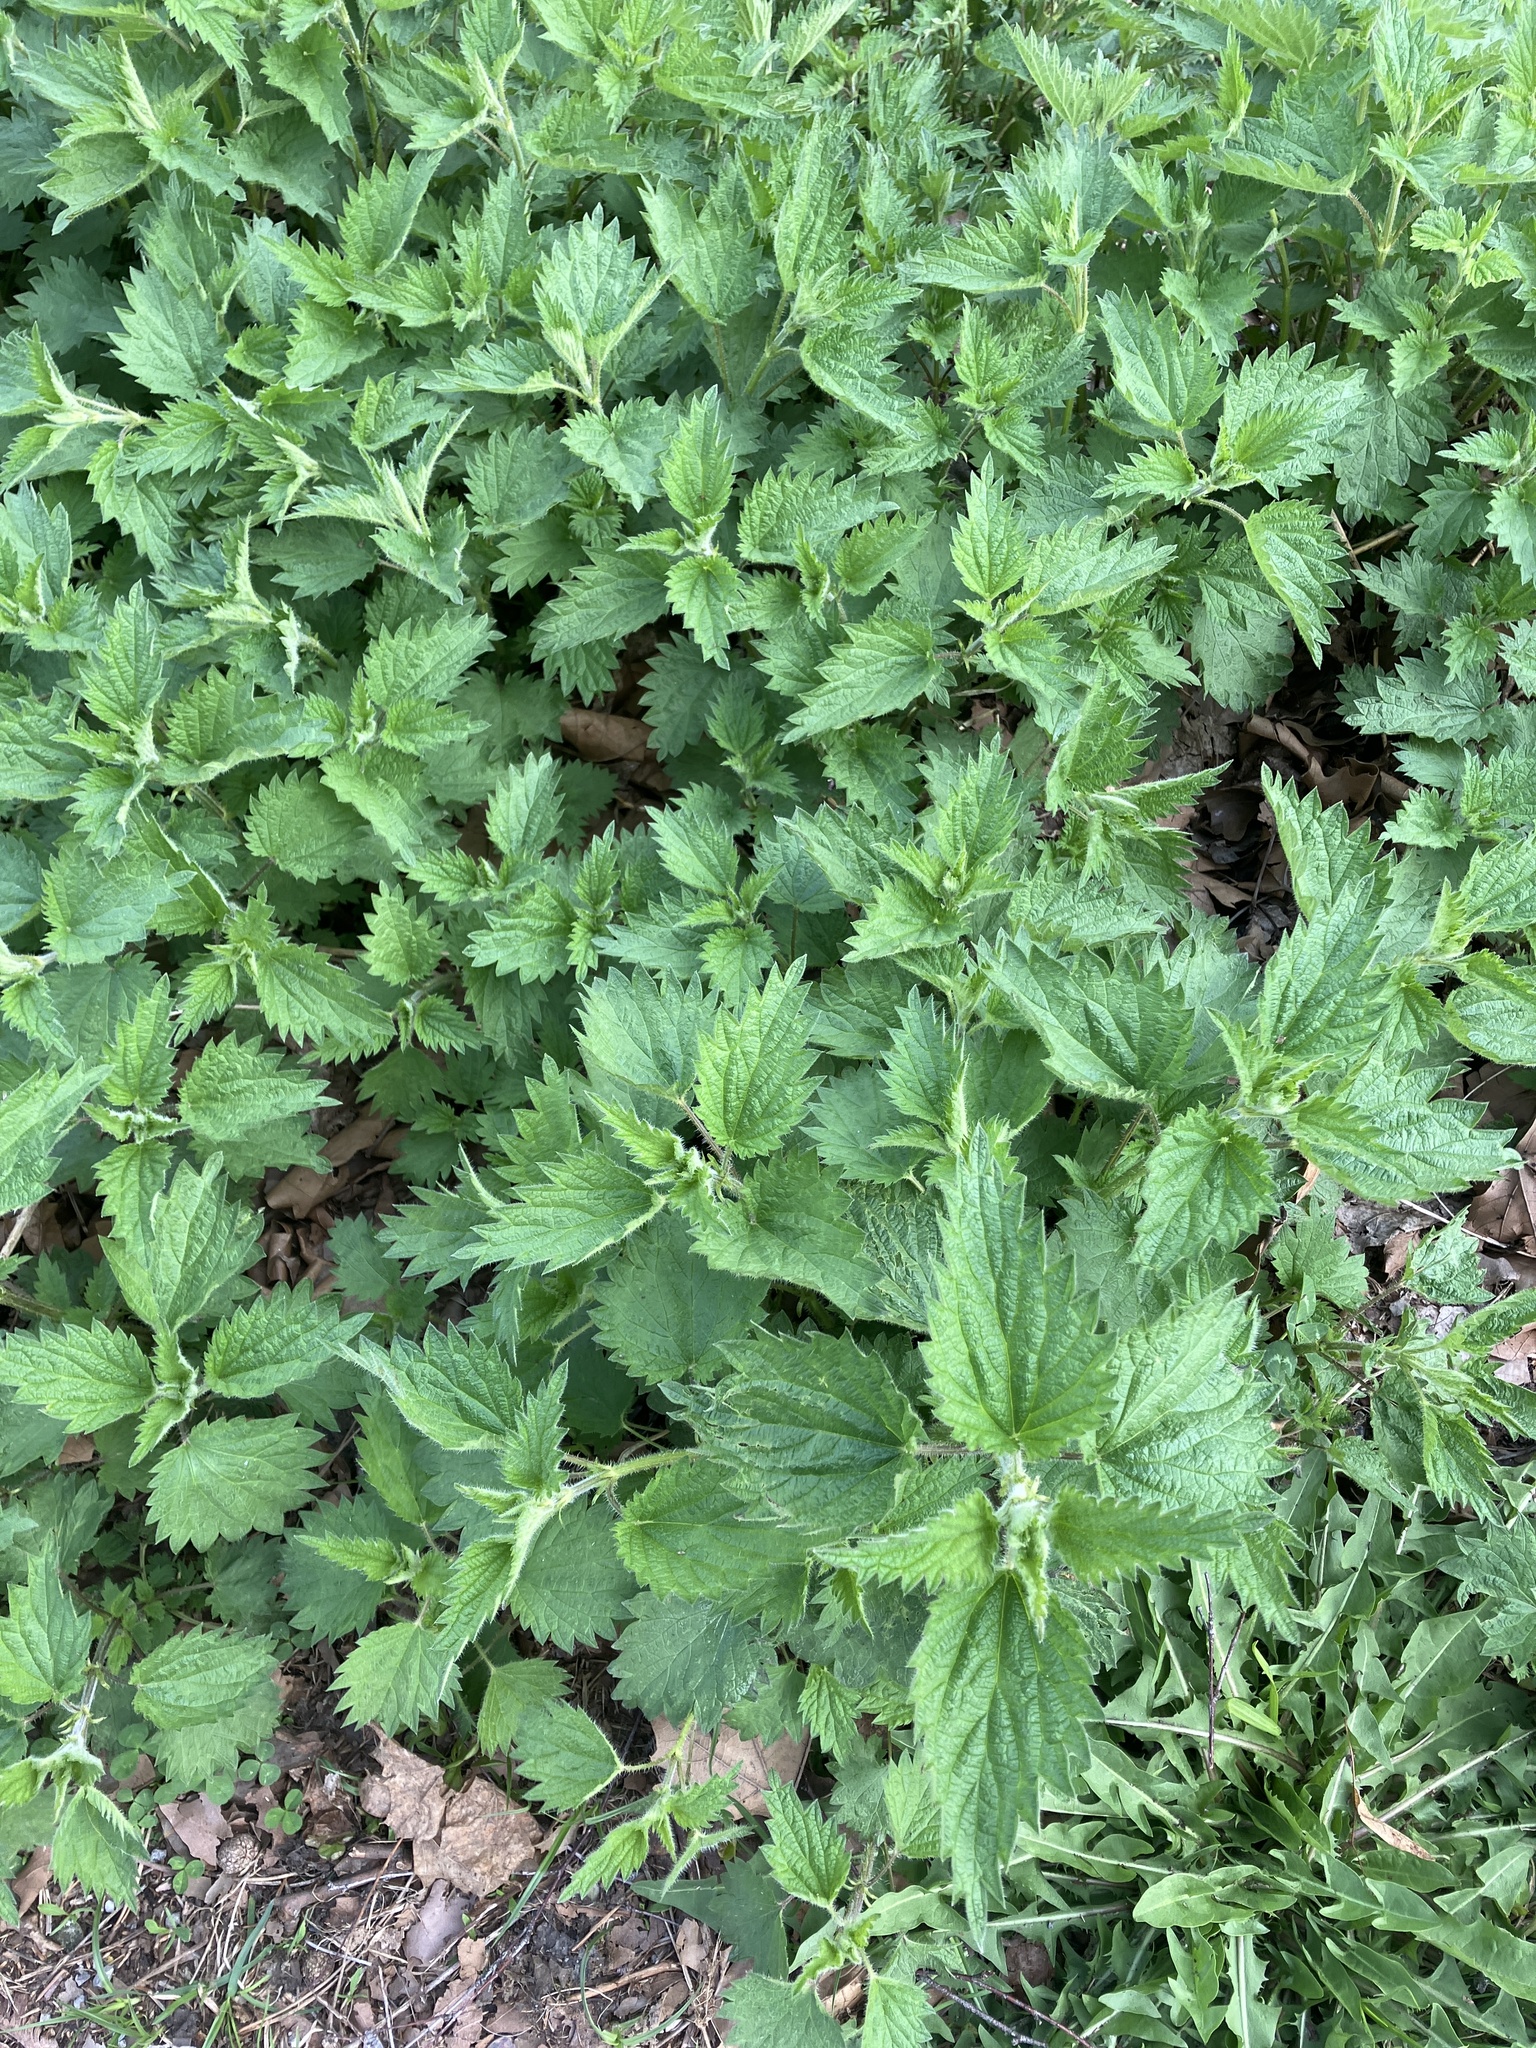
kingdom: Plantae
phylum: Tracheophyta
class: Magnoliopsida
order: Rosales
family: Urticaceae
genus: Urtica
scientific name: Urtica dioica
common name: Common nettle
